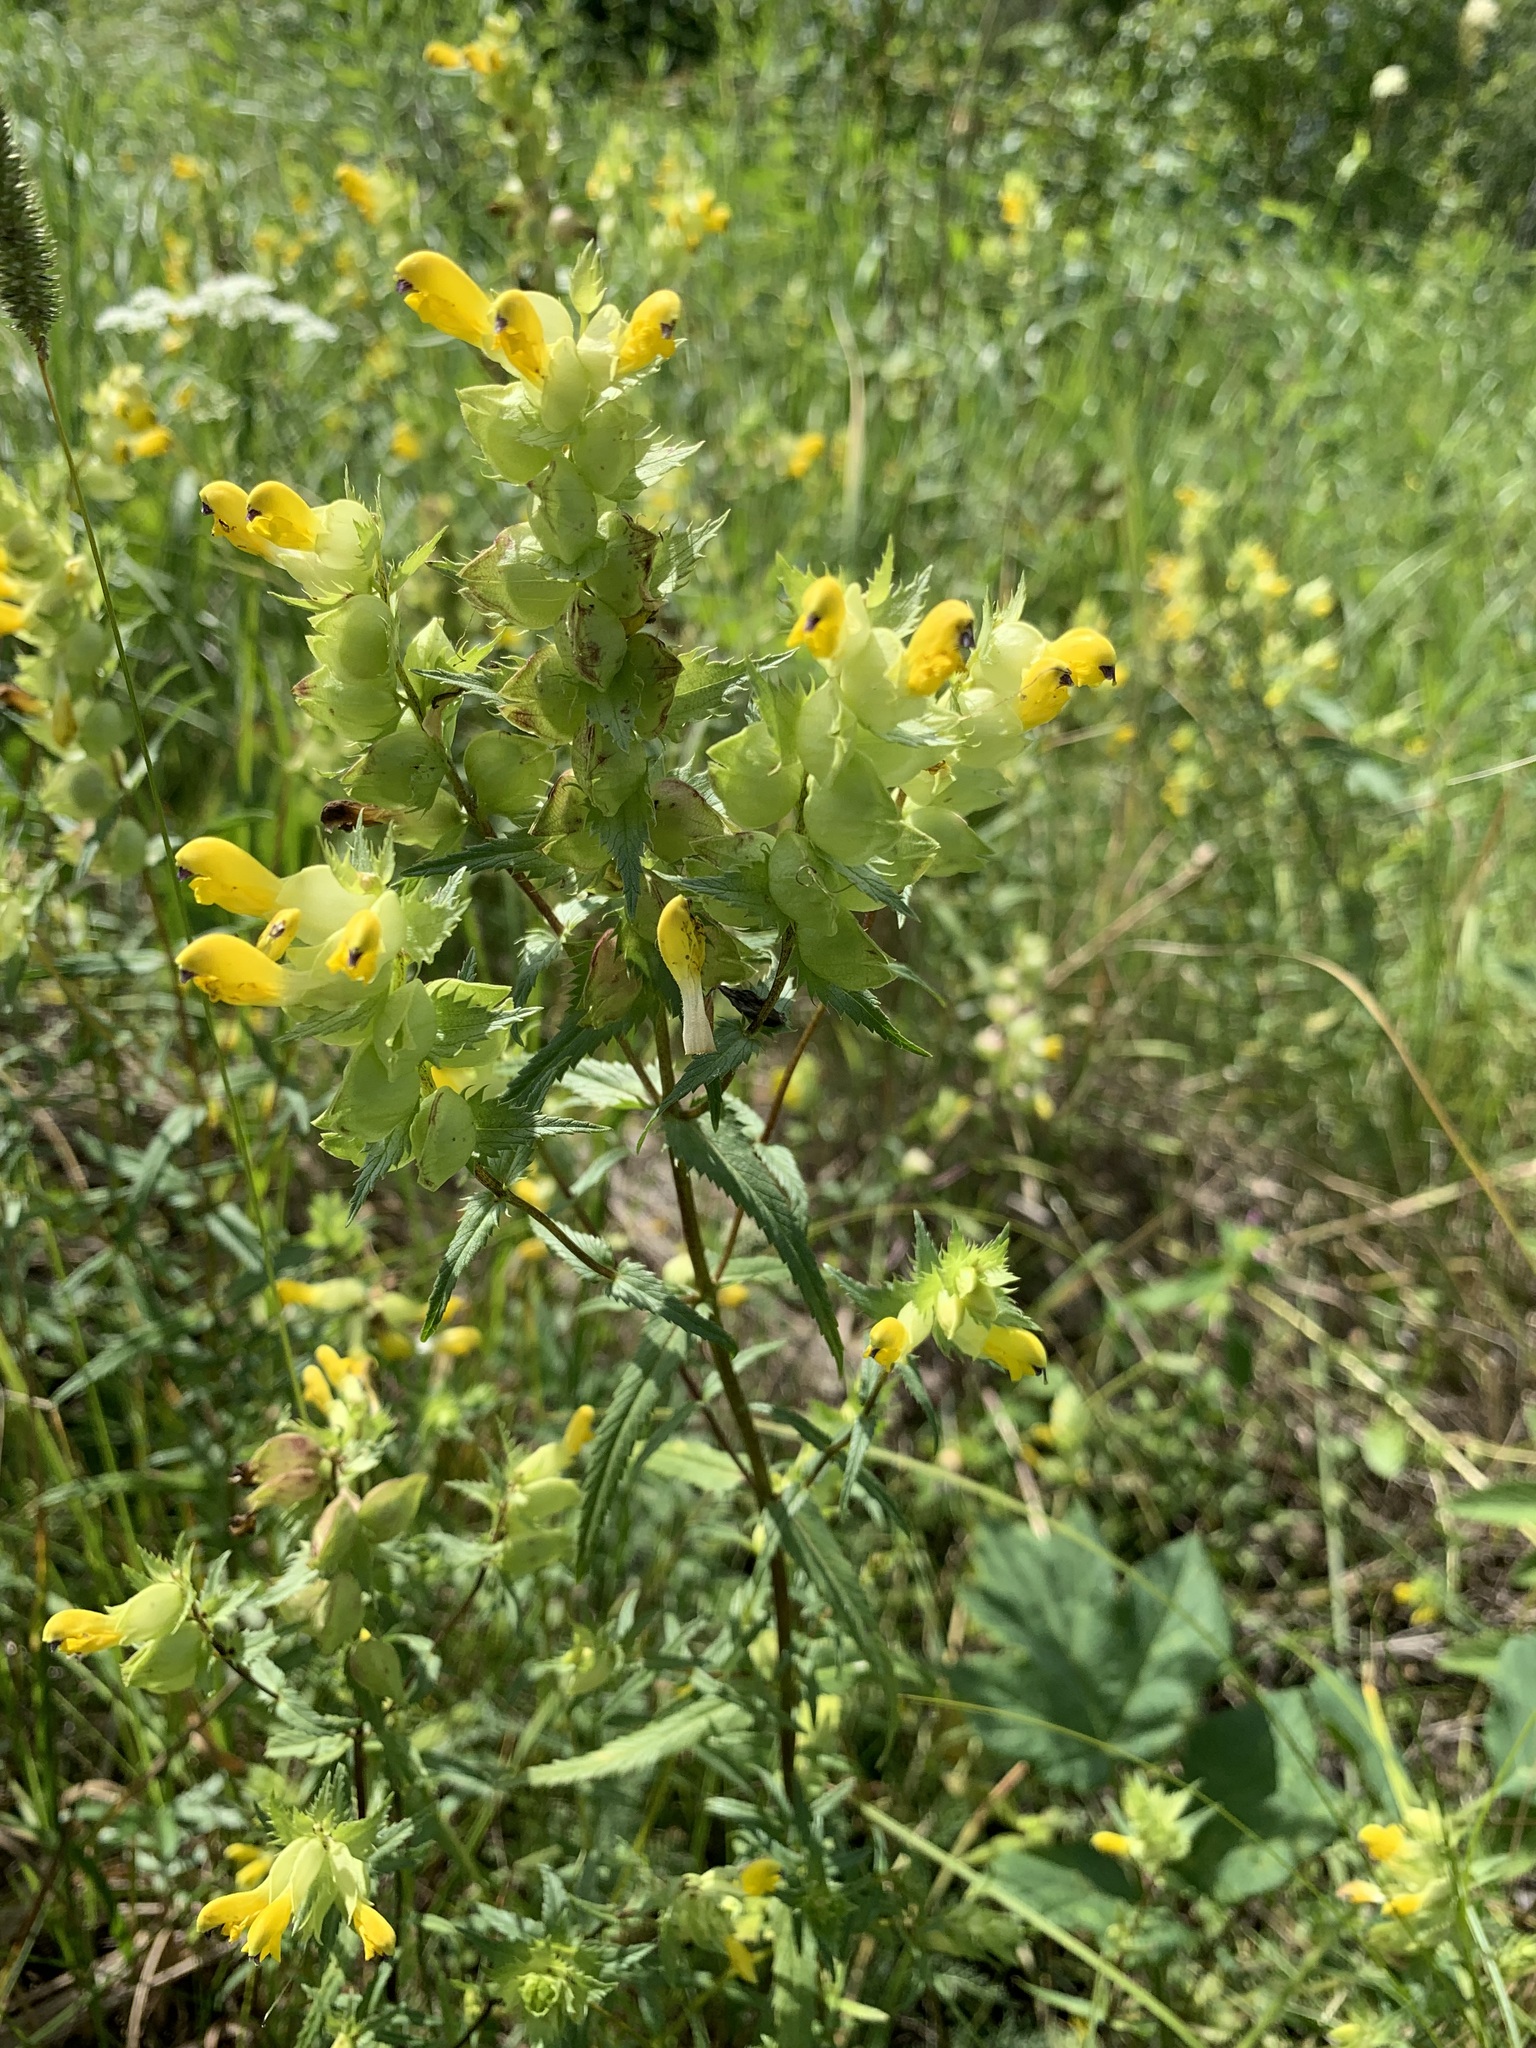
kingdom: Plantae
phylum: Tracheophyta
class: Magnoliopsida
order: Lamiales
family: Orobanchaceae
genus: Rhinanthus
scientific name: Rhinanthus serotinus
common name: Late-flowering yellow rattle
